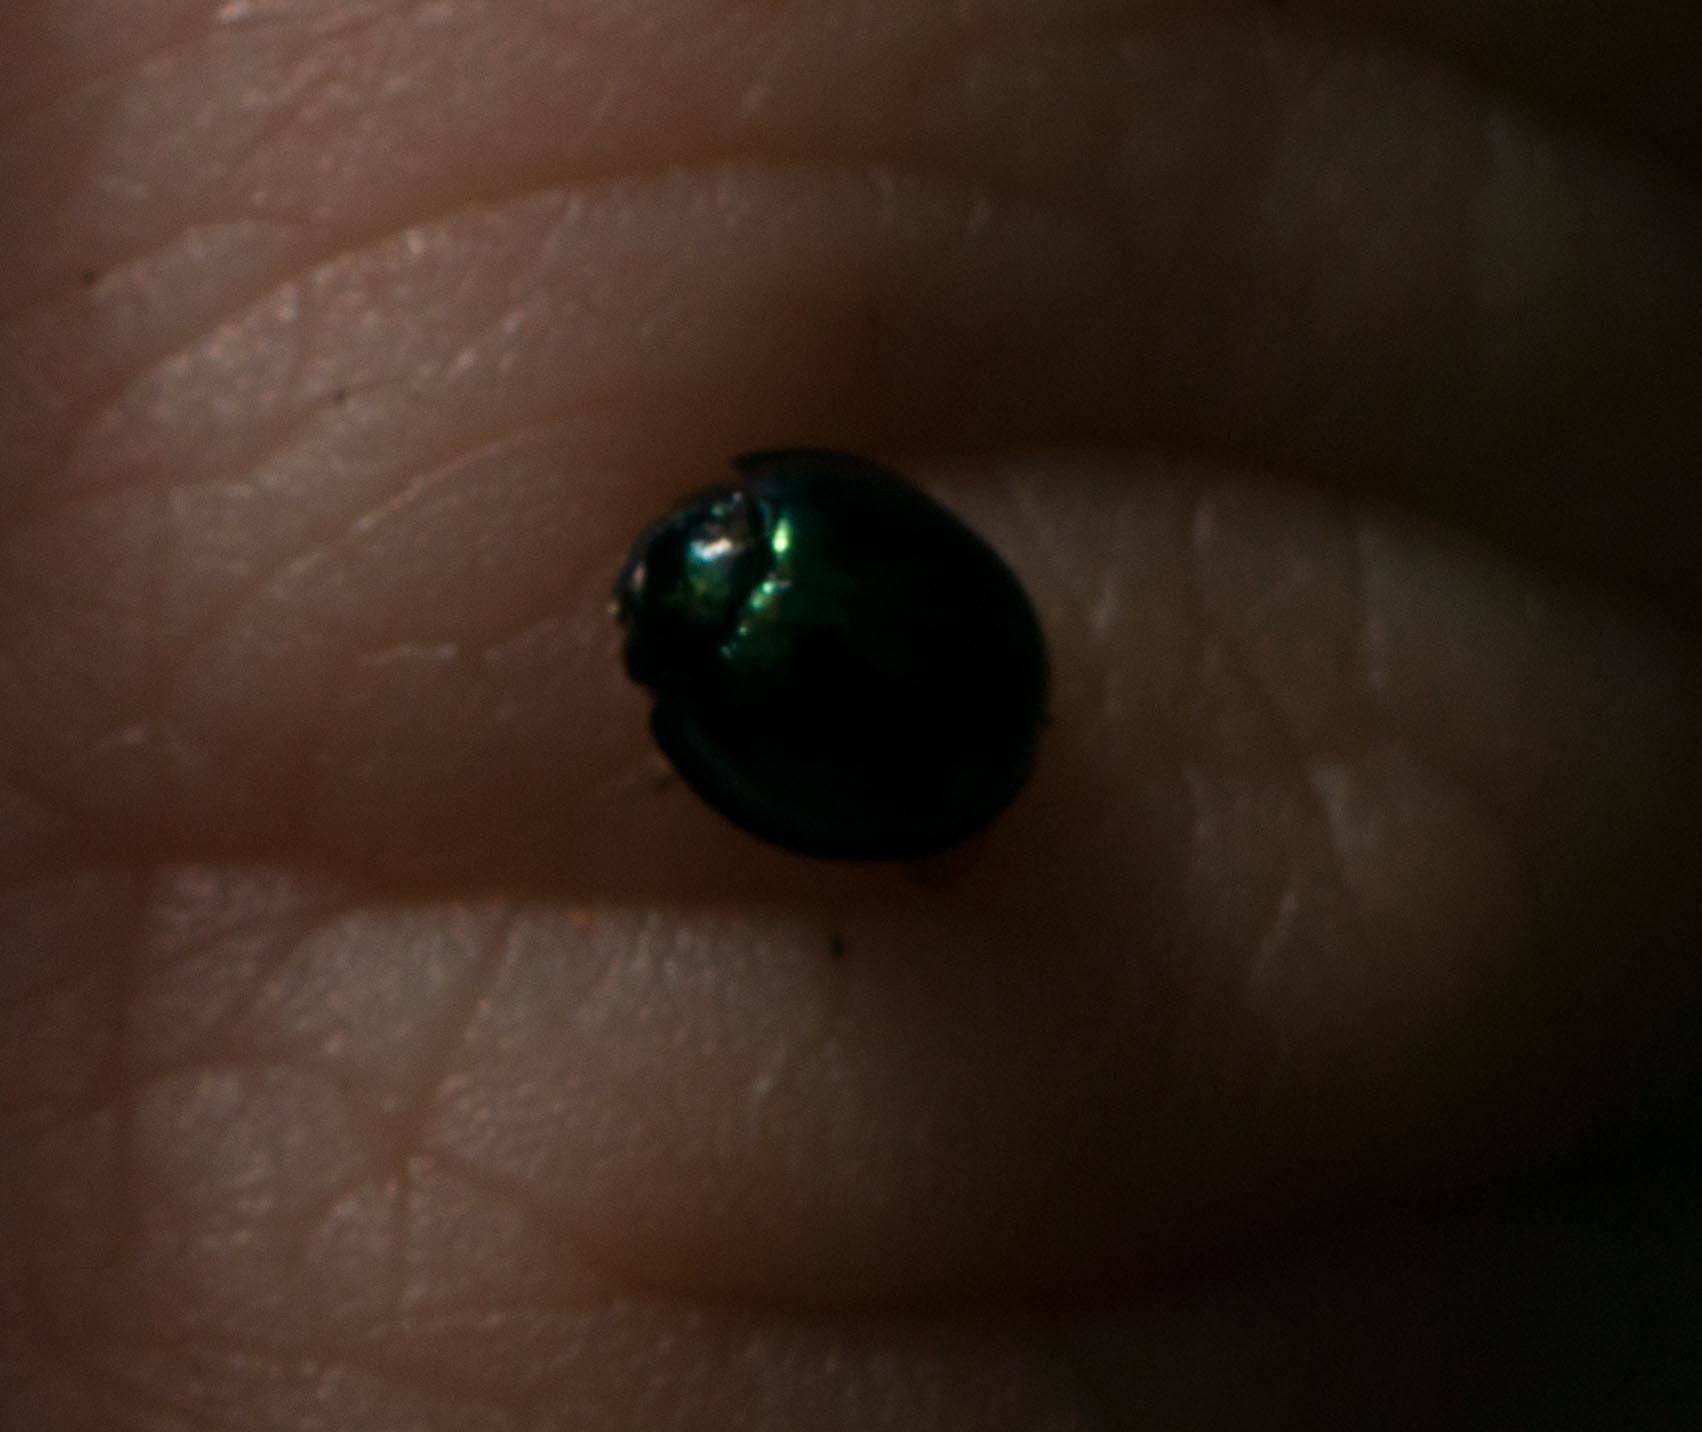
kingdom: Animalia
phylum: Arthropoda
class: Insecta
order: Coleoptera
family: Coccinellidae
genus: Halmus
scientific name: Halmus chalybeus
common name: Steel blue ladybird beetle
